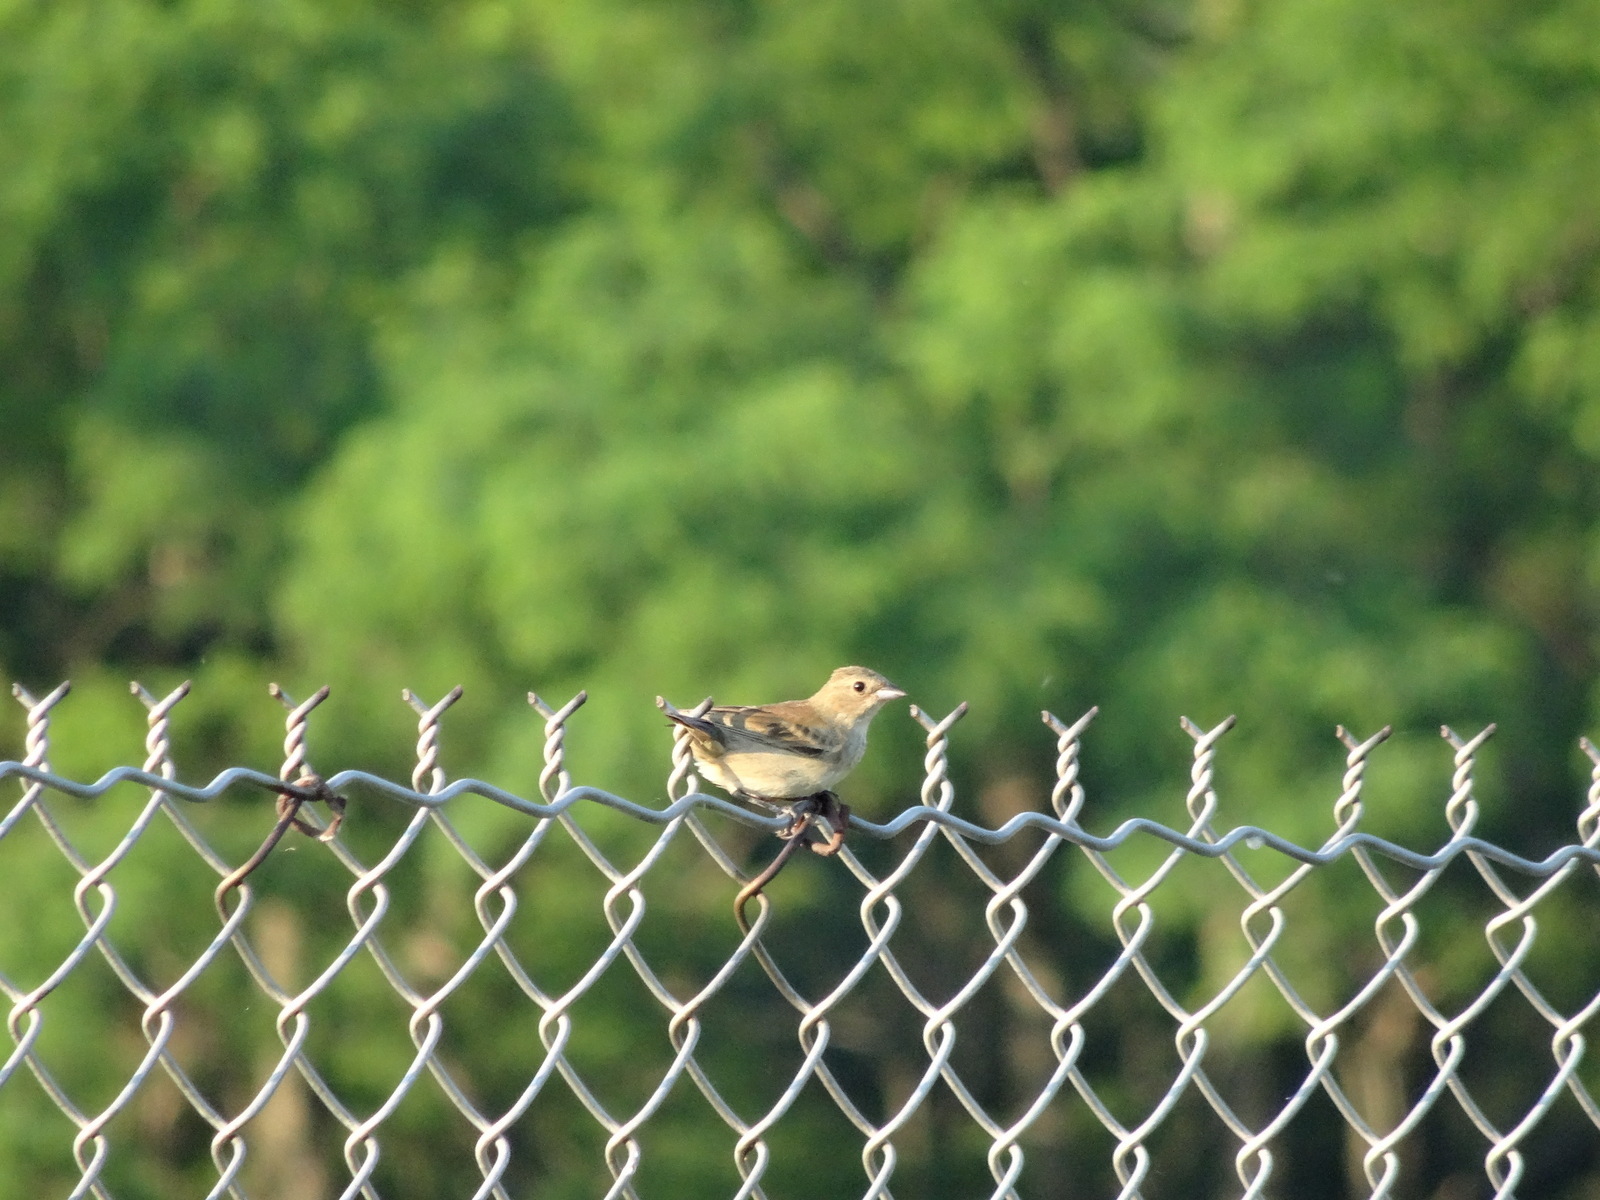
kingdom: Animalia
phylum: Chordata
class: Aves
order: Passeriformes
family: Cardinalidae
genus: Passerina
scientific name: Passerina cyanea
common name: Indigo bunting
